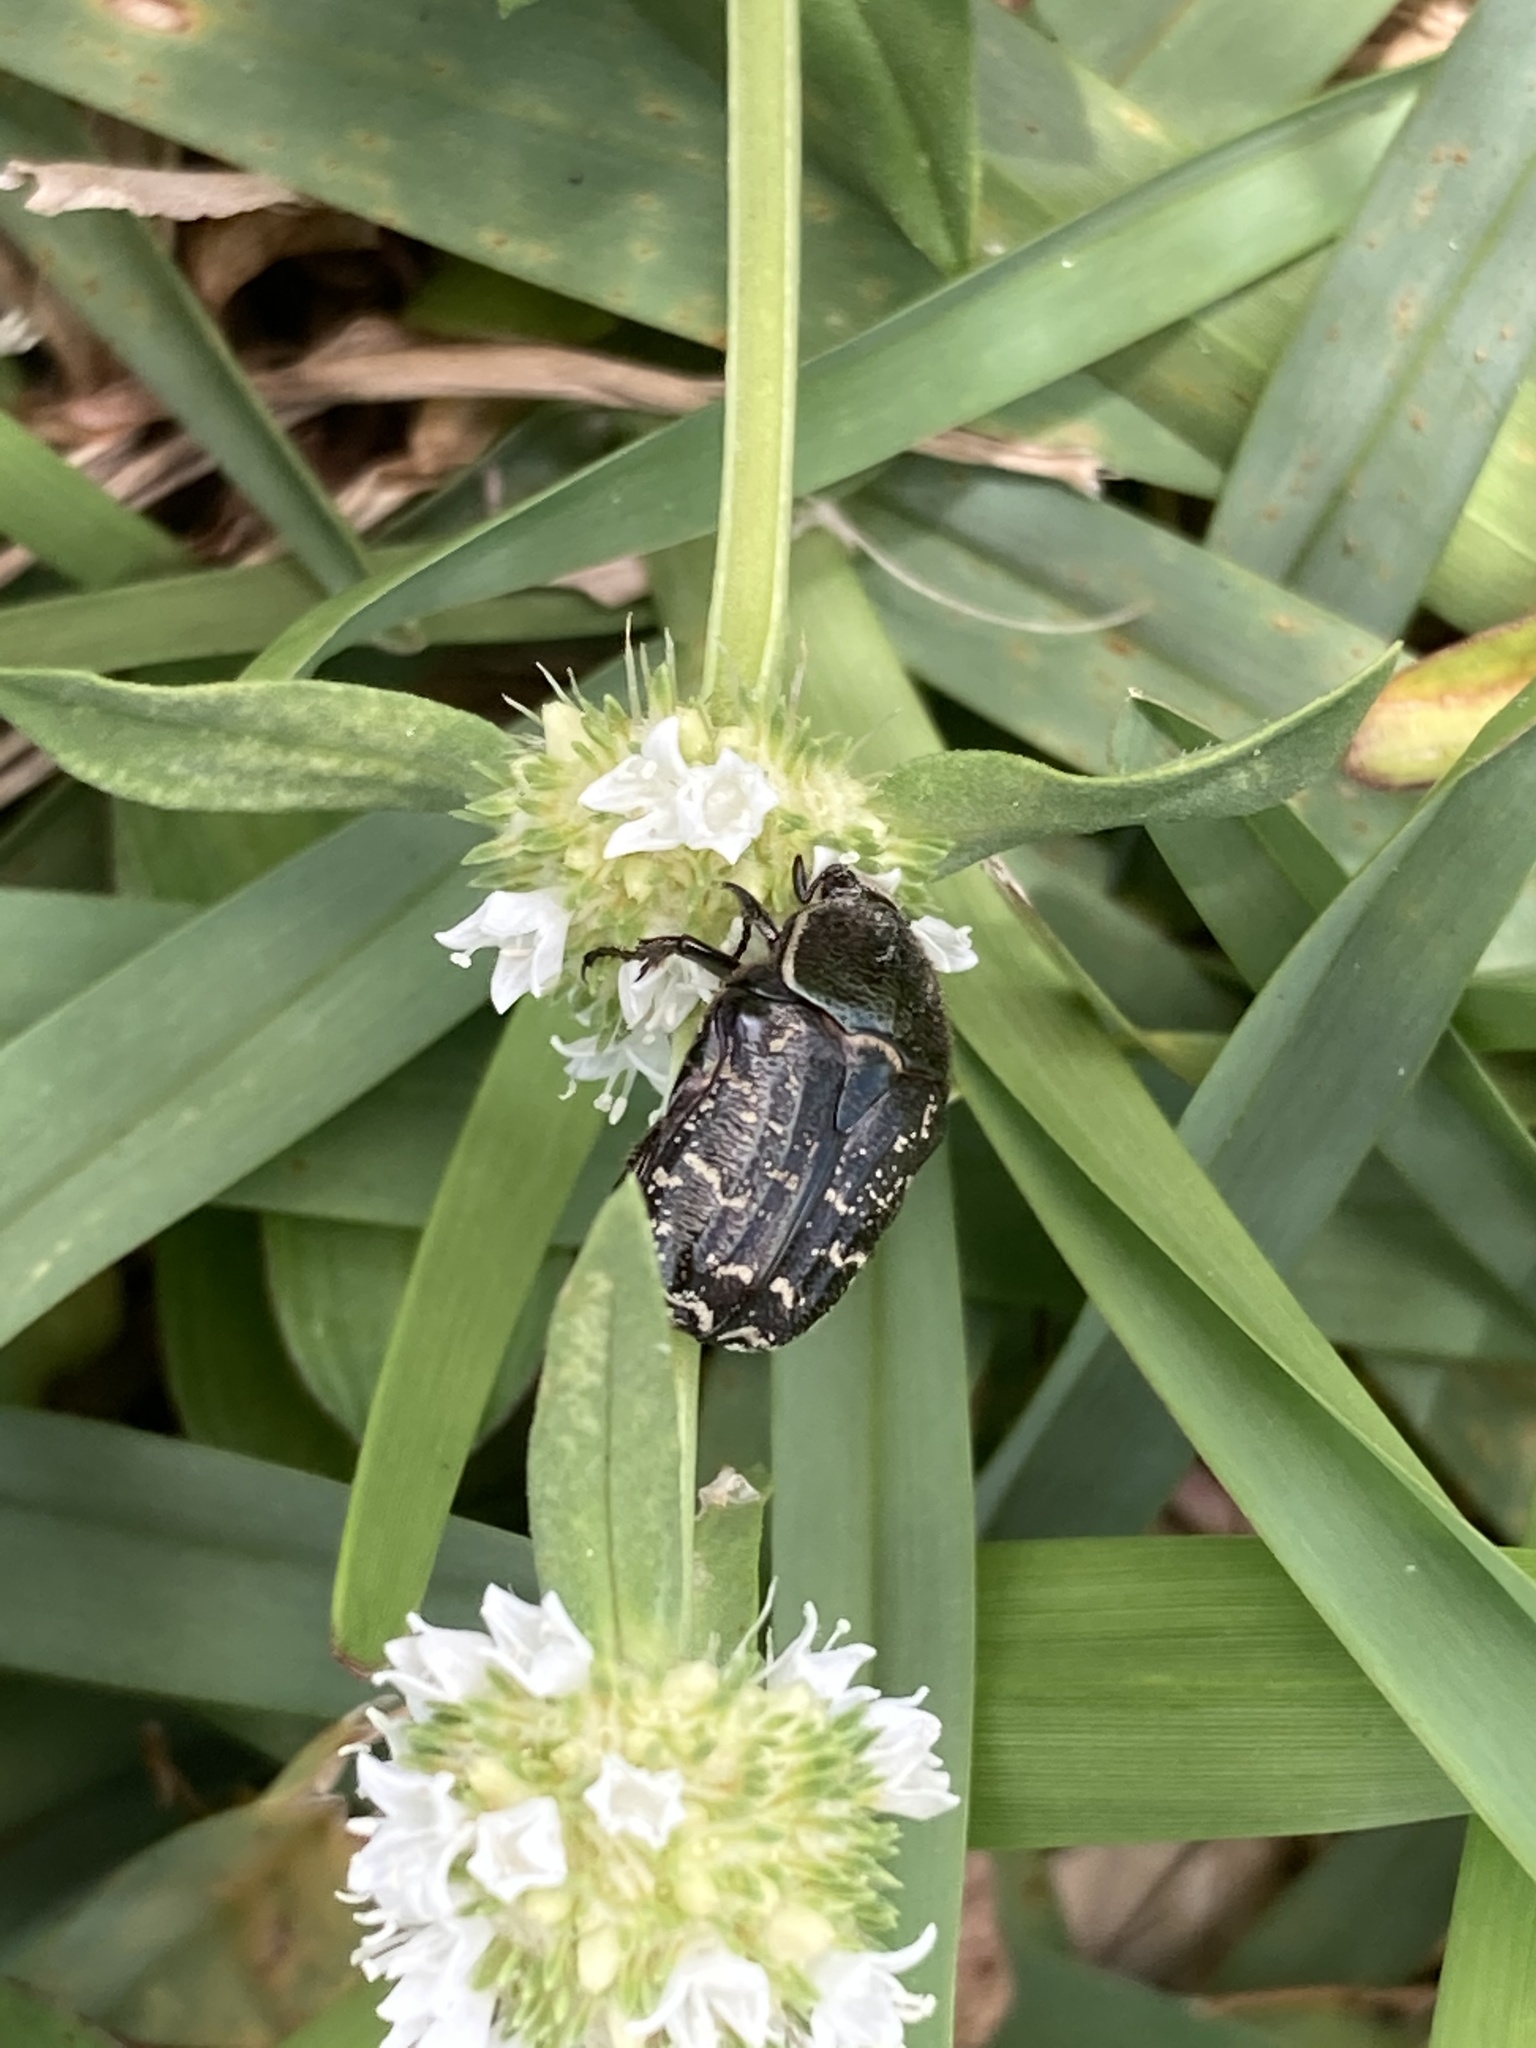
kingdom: Animalia
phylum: Arthropoda
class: Insecta
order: Coleoptera
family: Scarabaeidae
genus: Euphoria
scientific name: Euphoria sepulcralis
